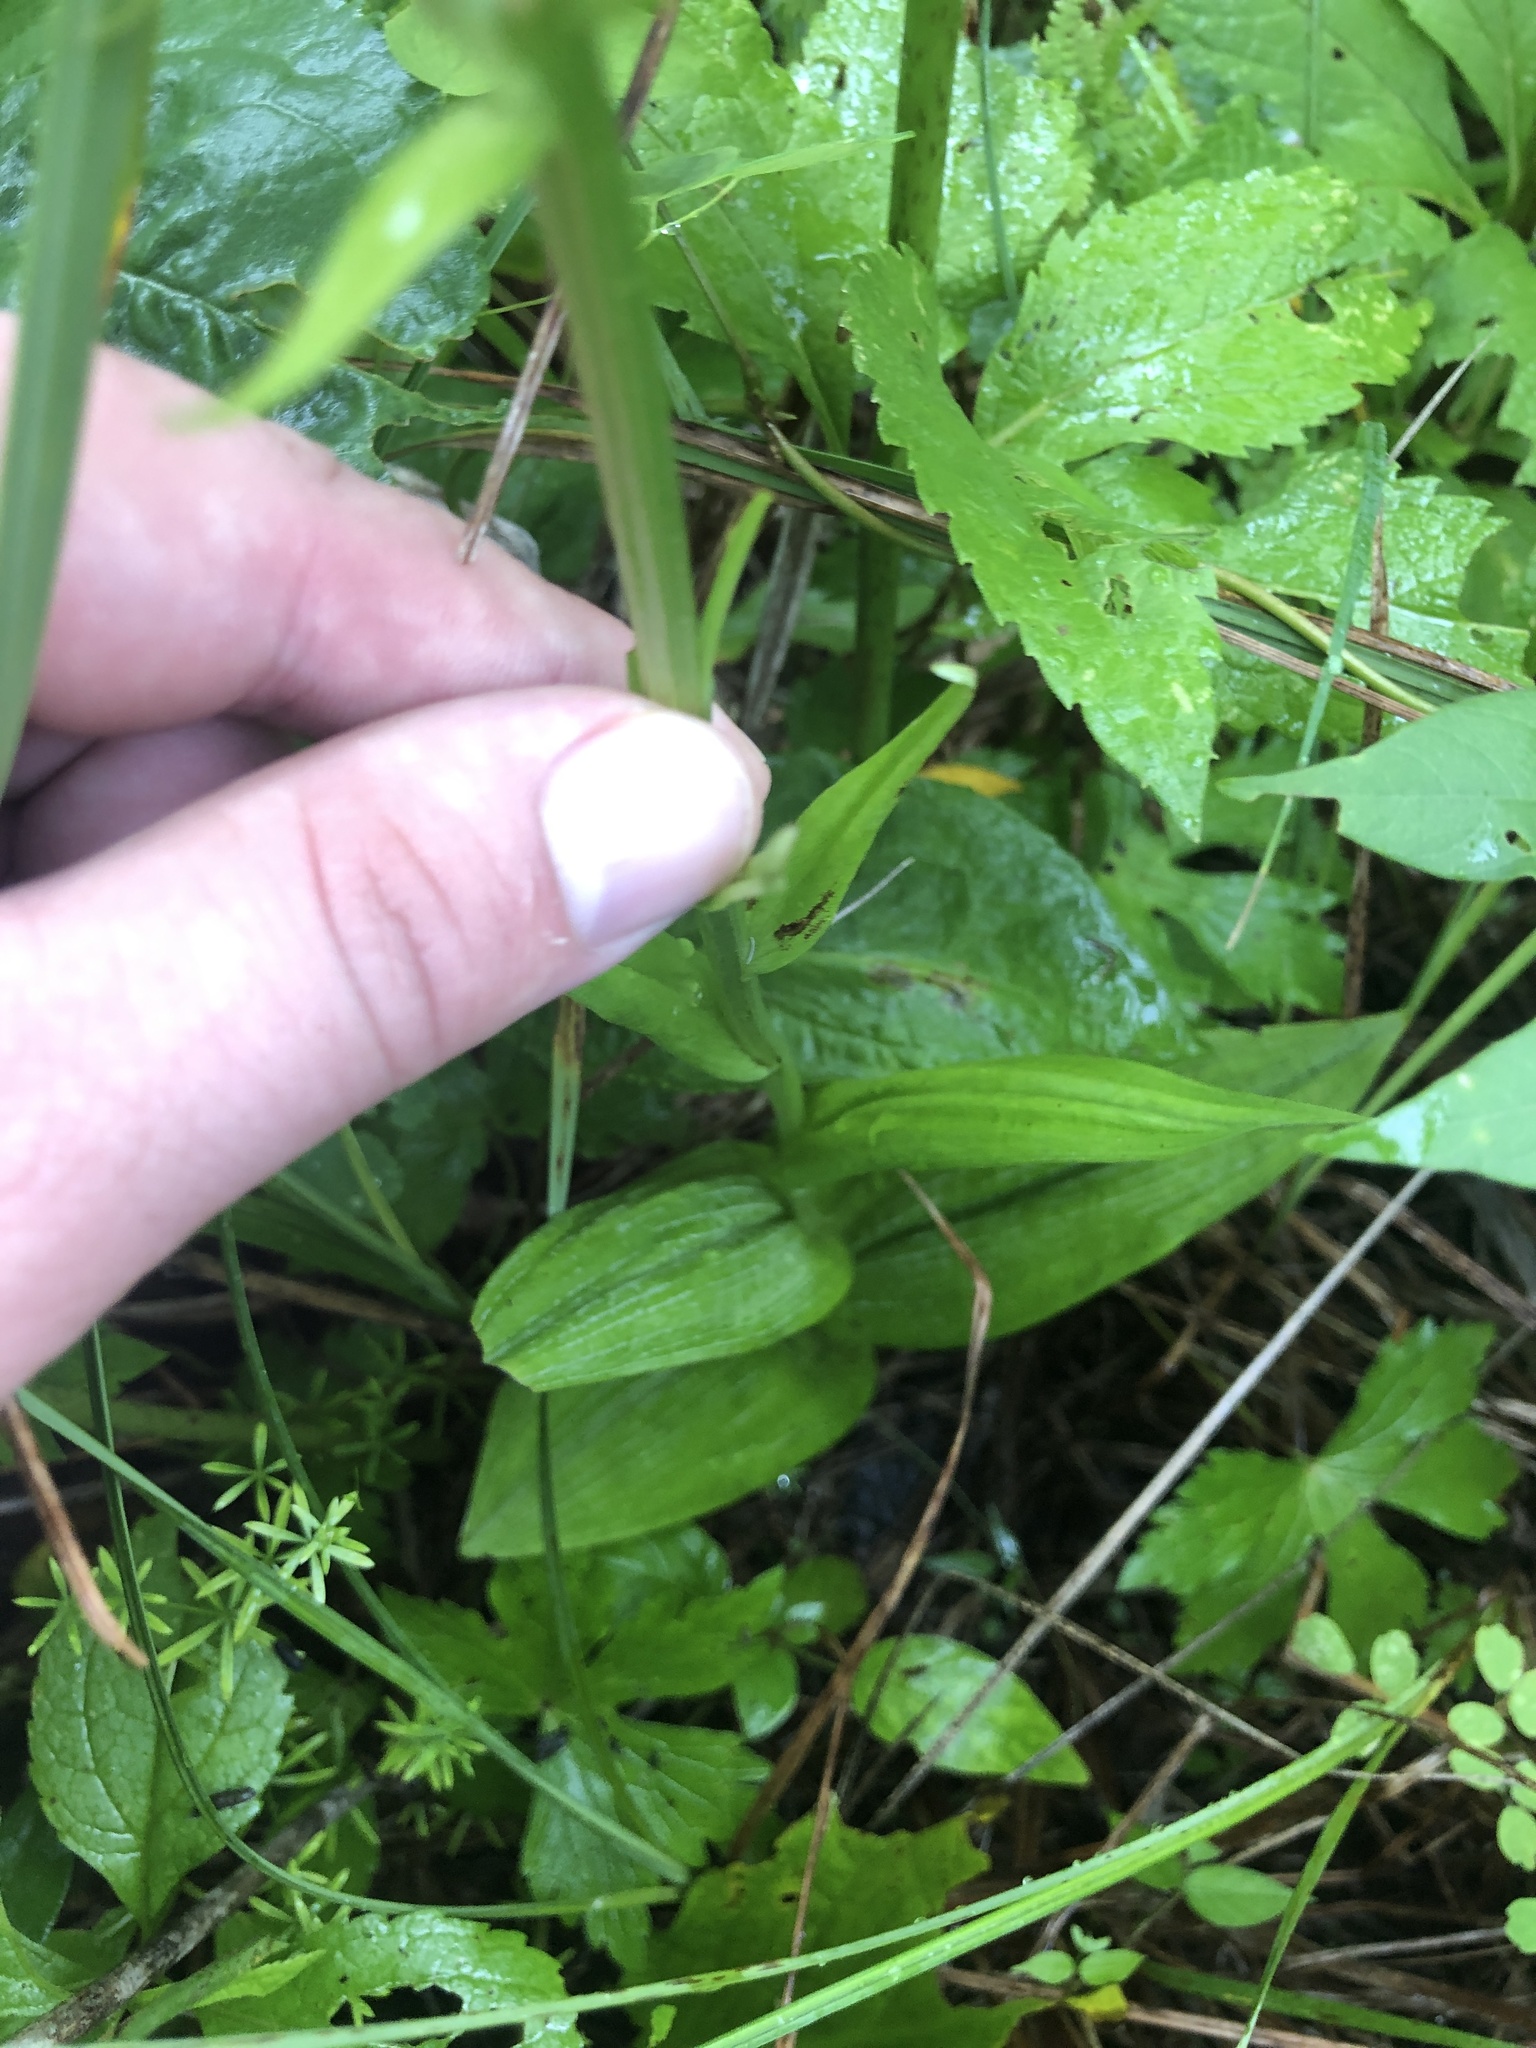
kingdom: Plantae
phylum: Tracheophyta
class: Liliopsida
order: Asparagales
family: Orchidaceae
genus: Platanthera
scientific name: Platanthera psycodes
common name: Lesser purple fringed orchid
